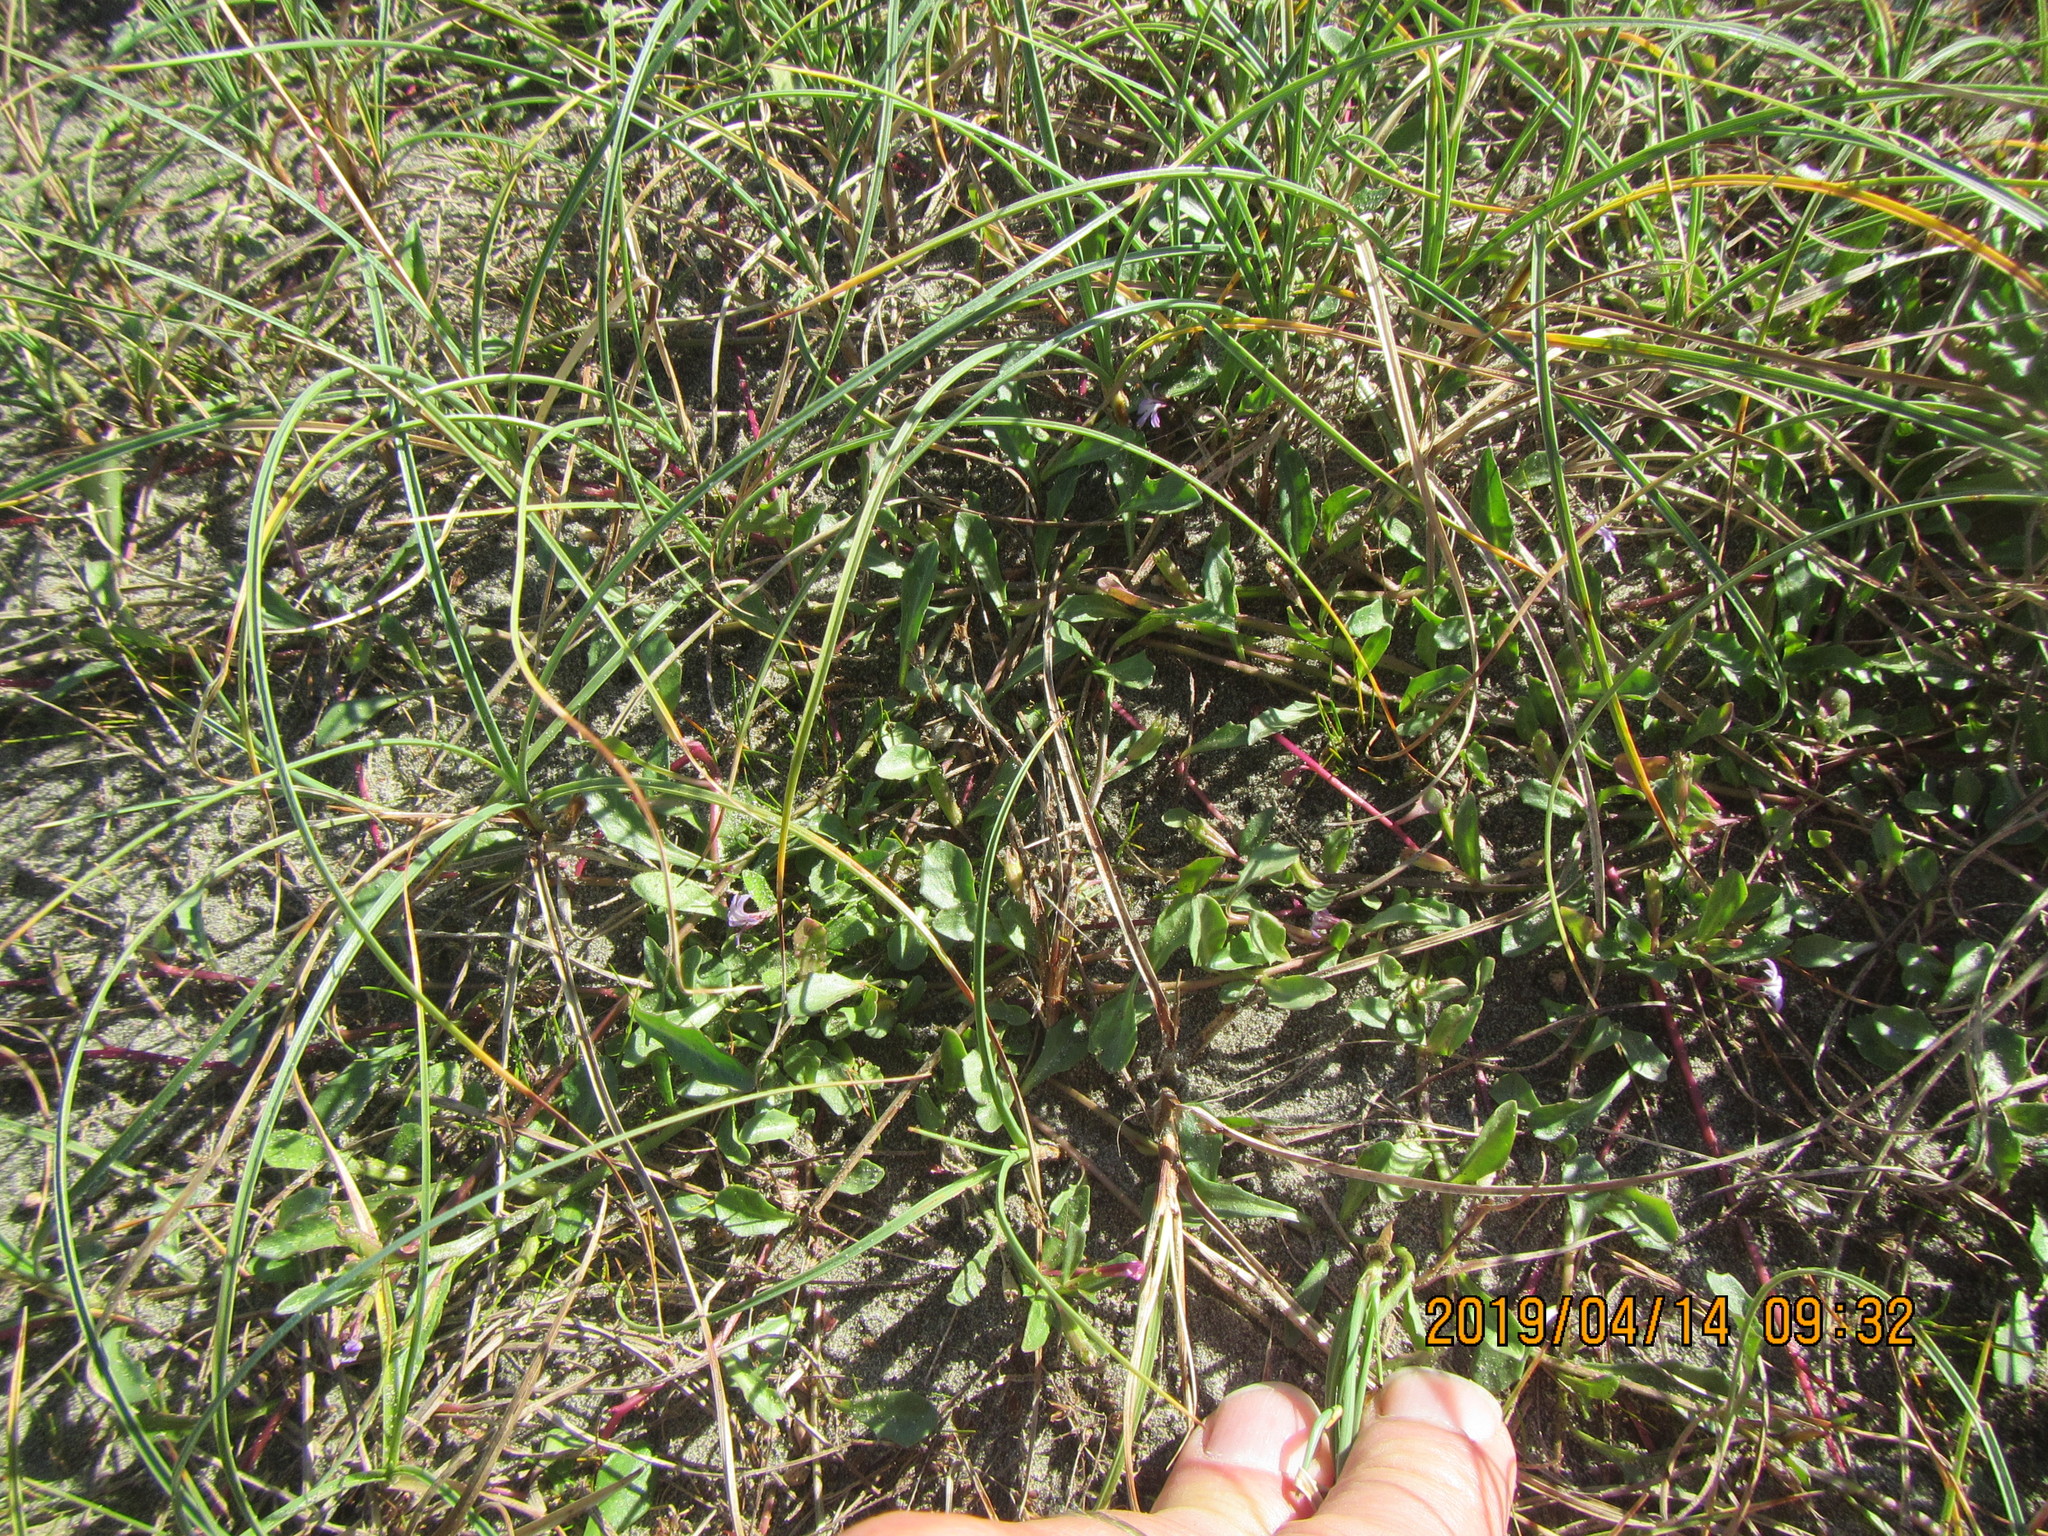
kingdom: Plantae
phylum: Tracheophyta
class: Magnoliopsida
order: Asterales
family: Campanulaceae
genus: Lobelia
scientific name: Lobelia anceps
